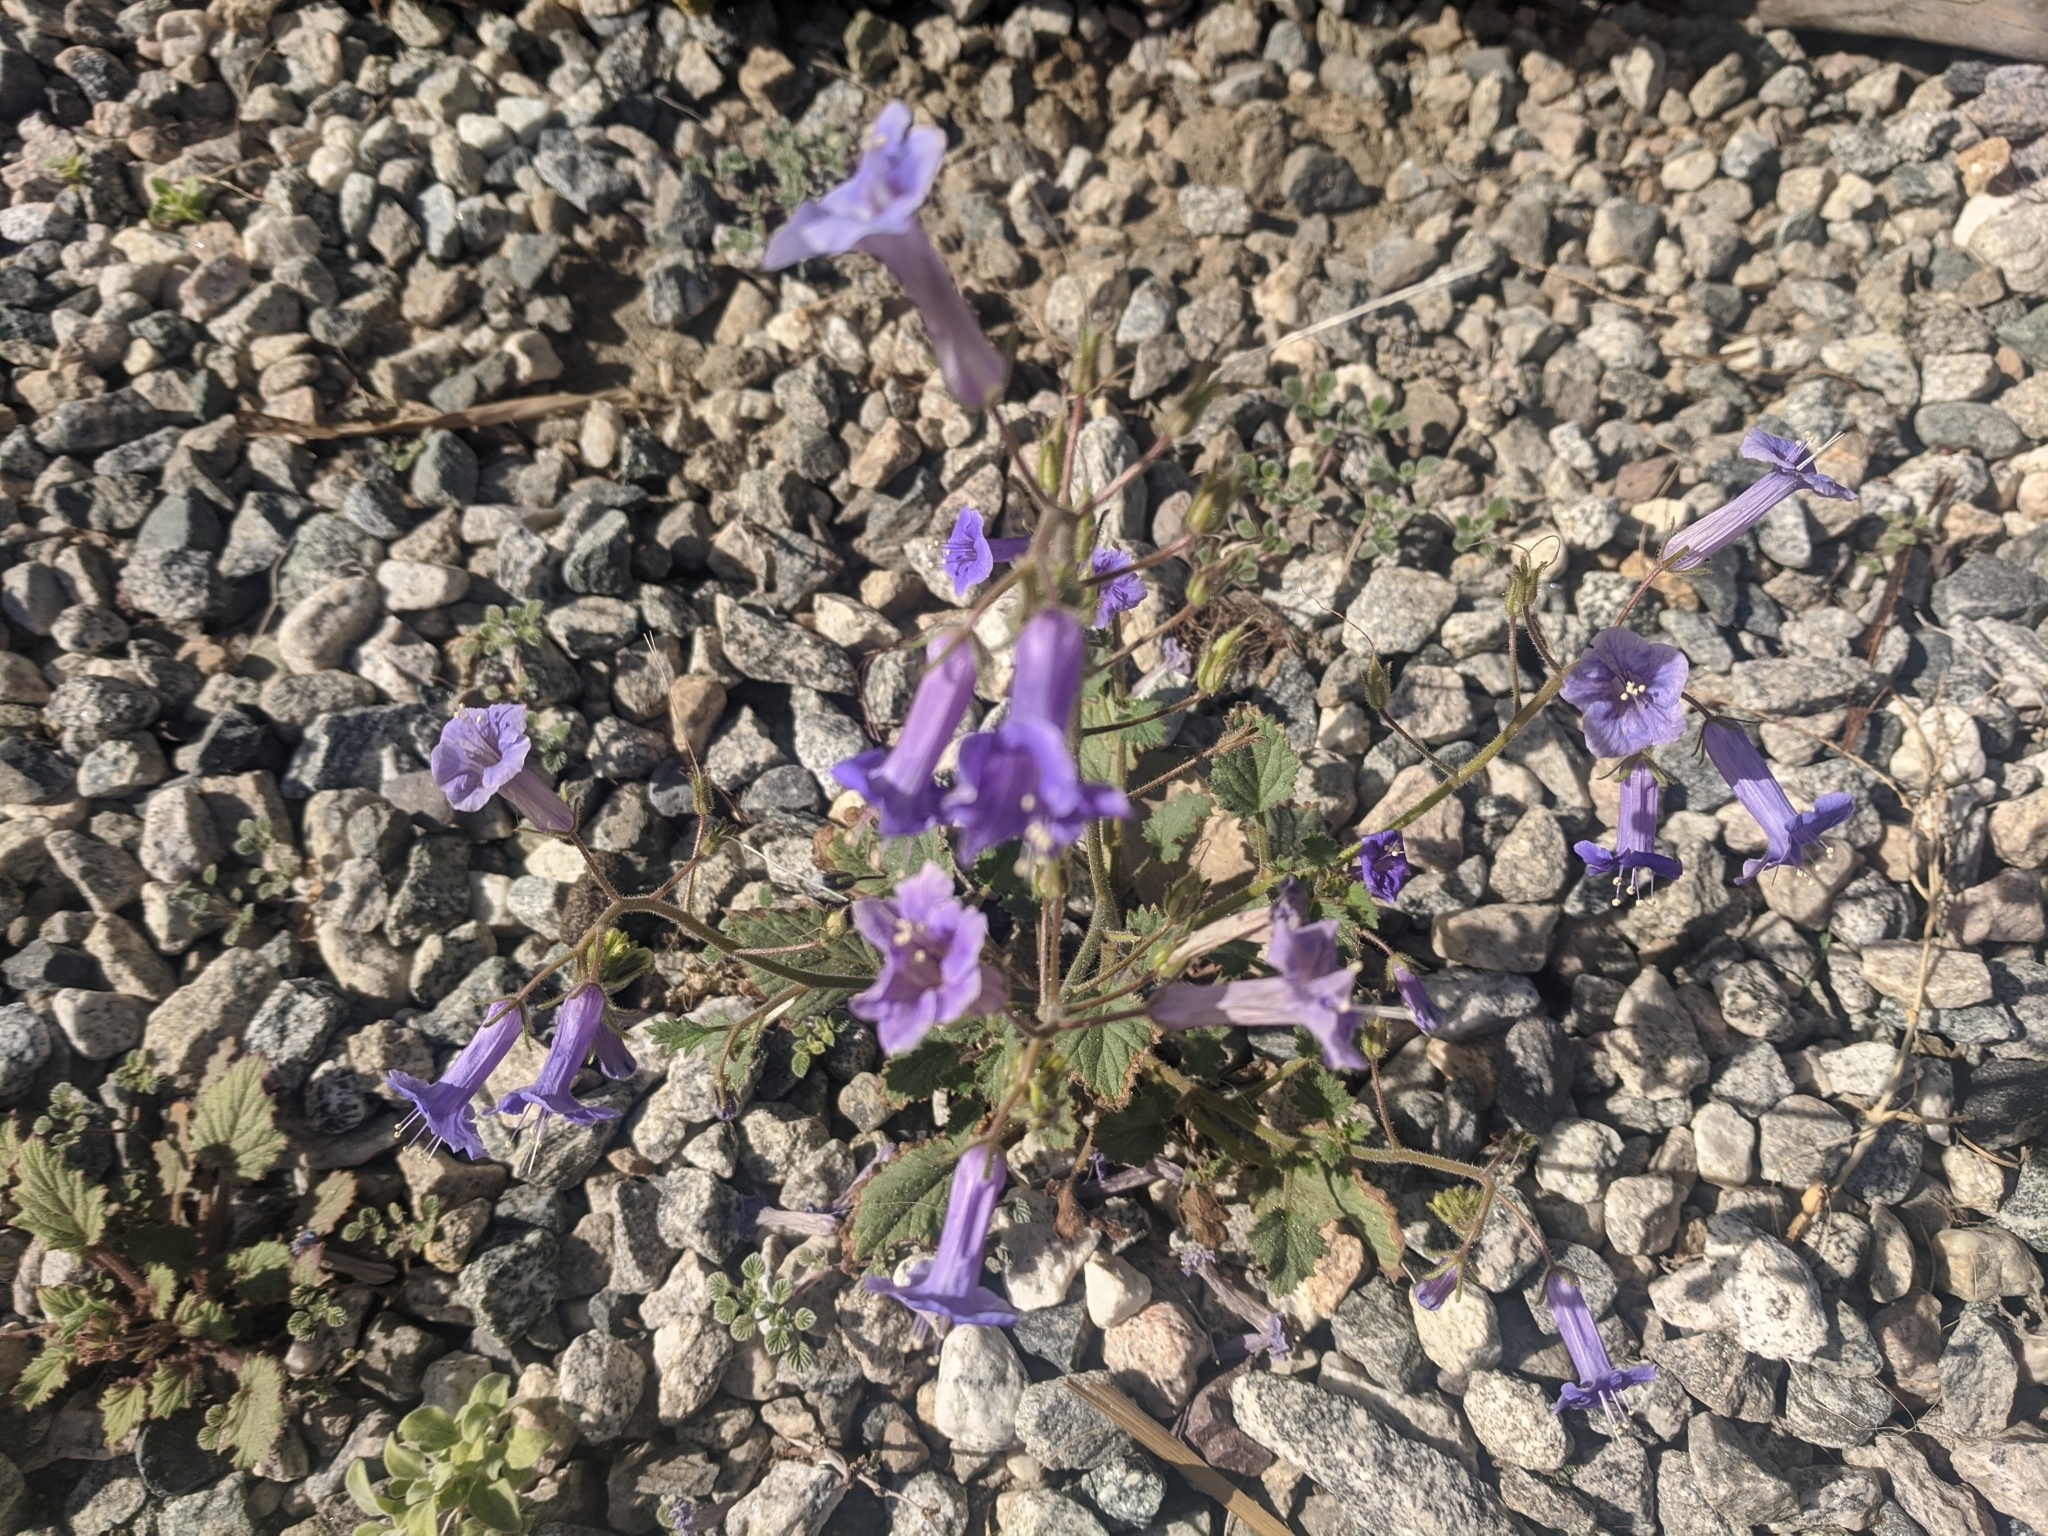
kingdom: Plantae
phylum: Tracheophyta
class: Magnoliopsida
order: Boraginales
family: Hydrophyllaceae
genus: Phacelia
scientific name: Phacelia minor
